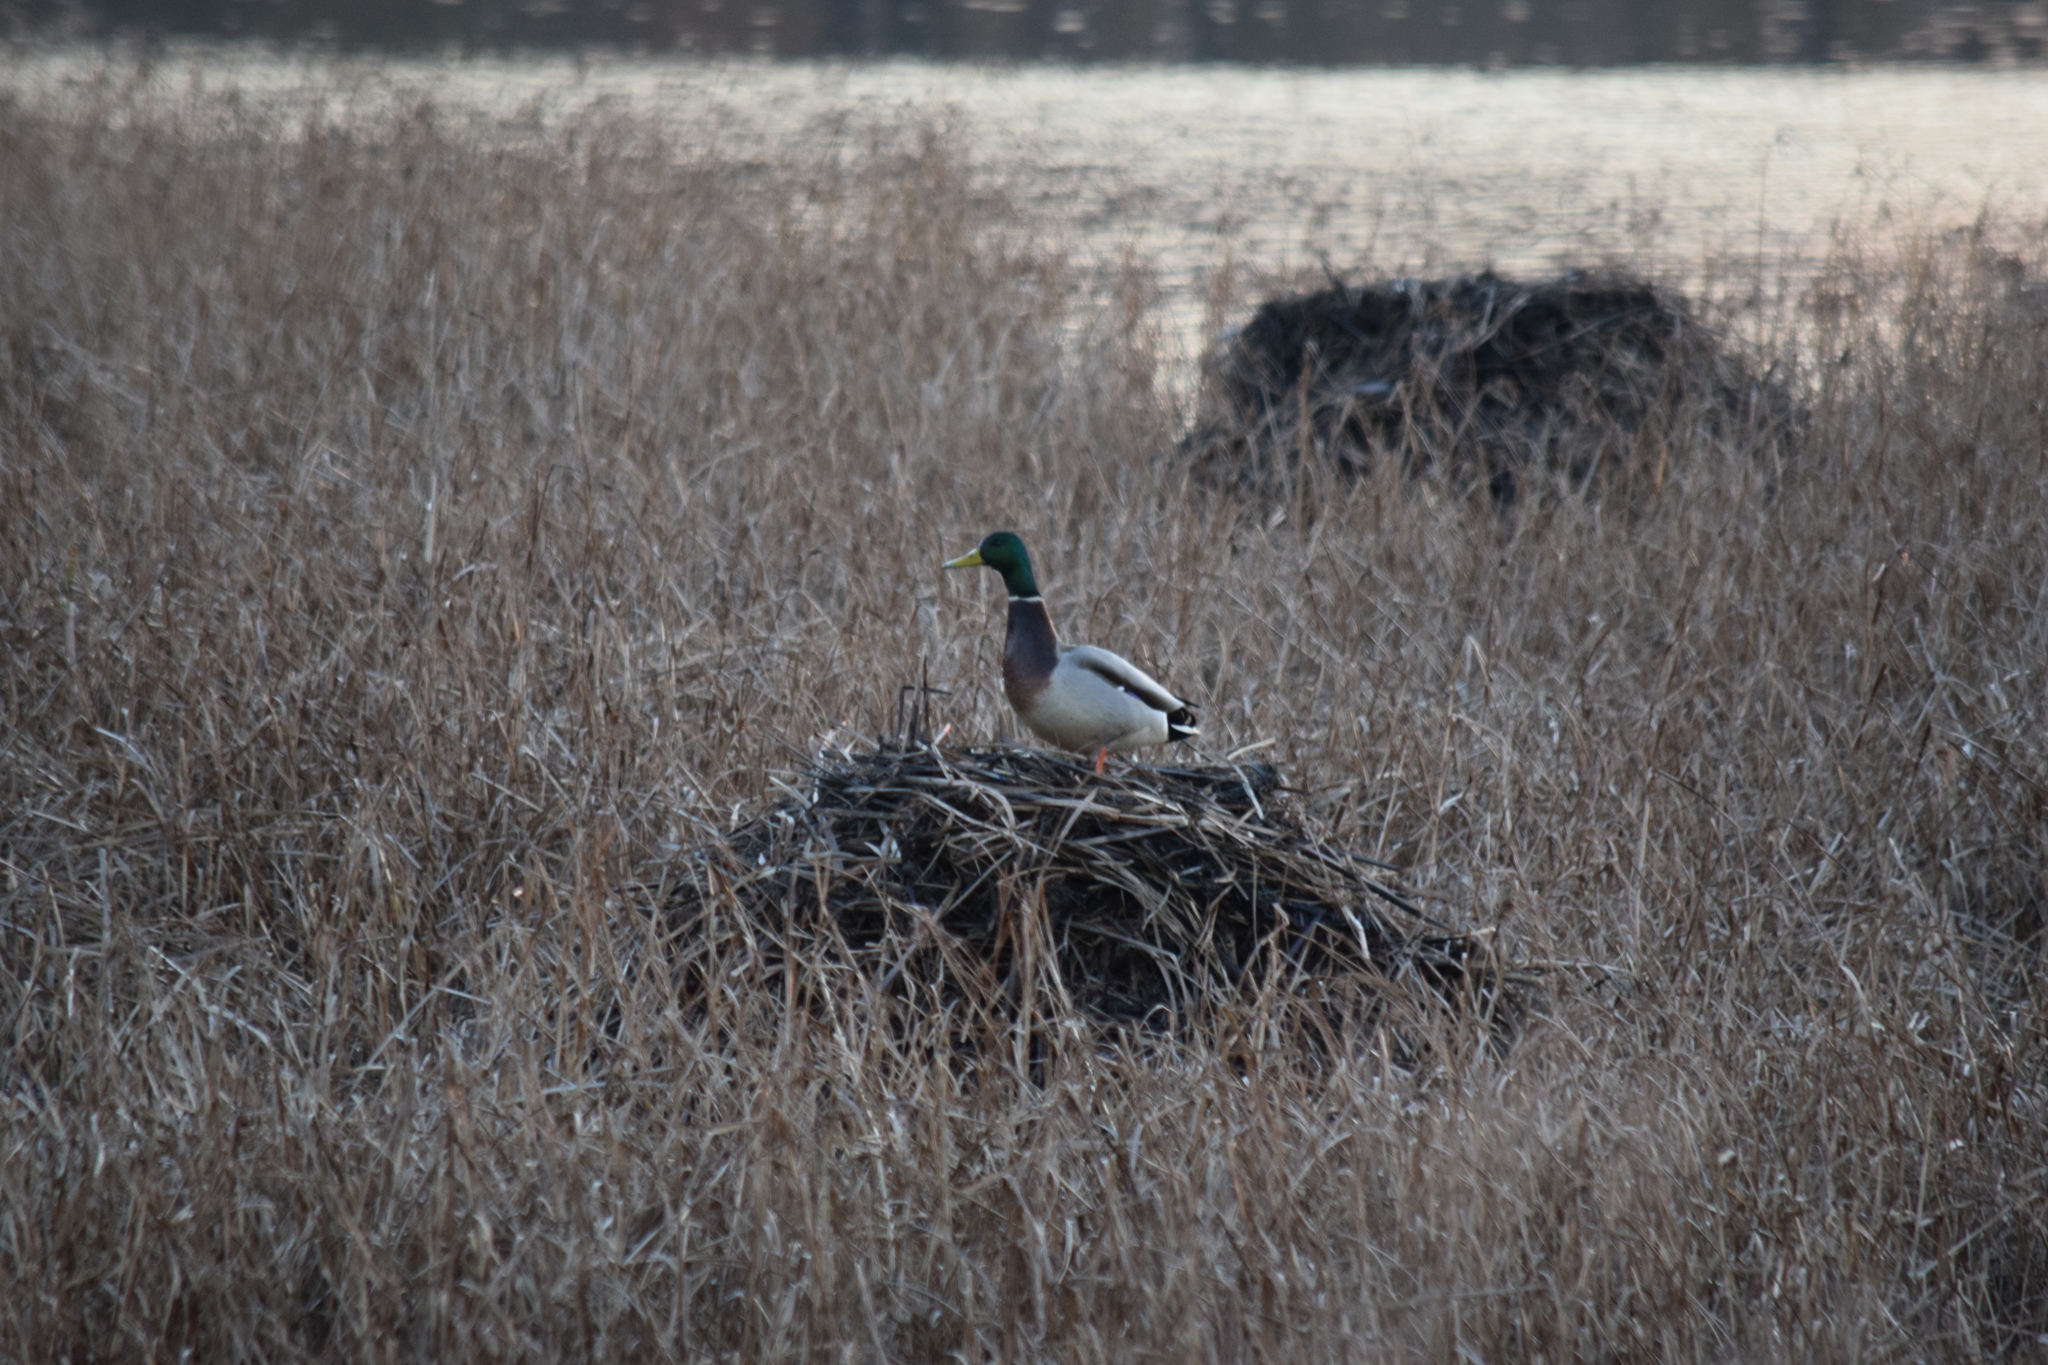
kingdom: Animalia
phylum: Chordata
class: Aves
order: Anseriformes
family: Anatidae
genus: Anas
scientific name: Anas platyrhynchos
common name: Mallard
